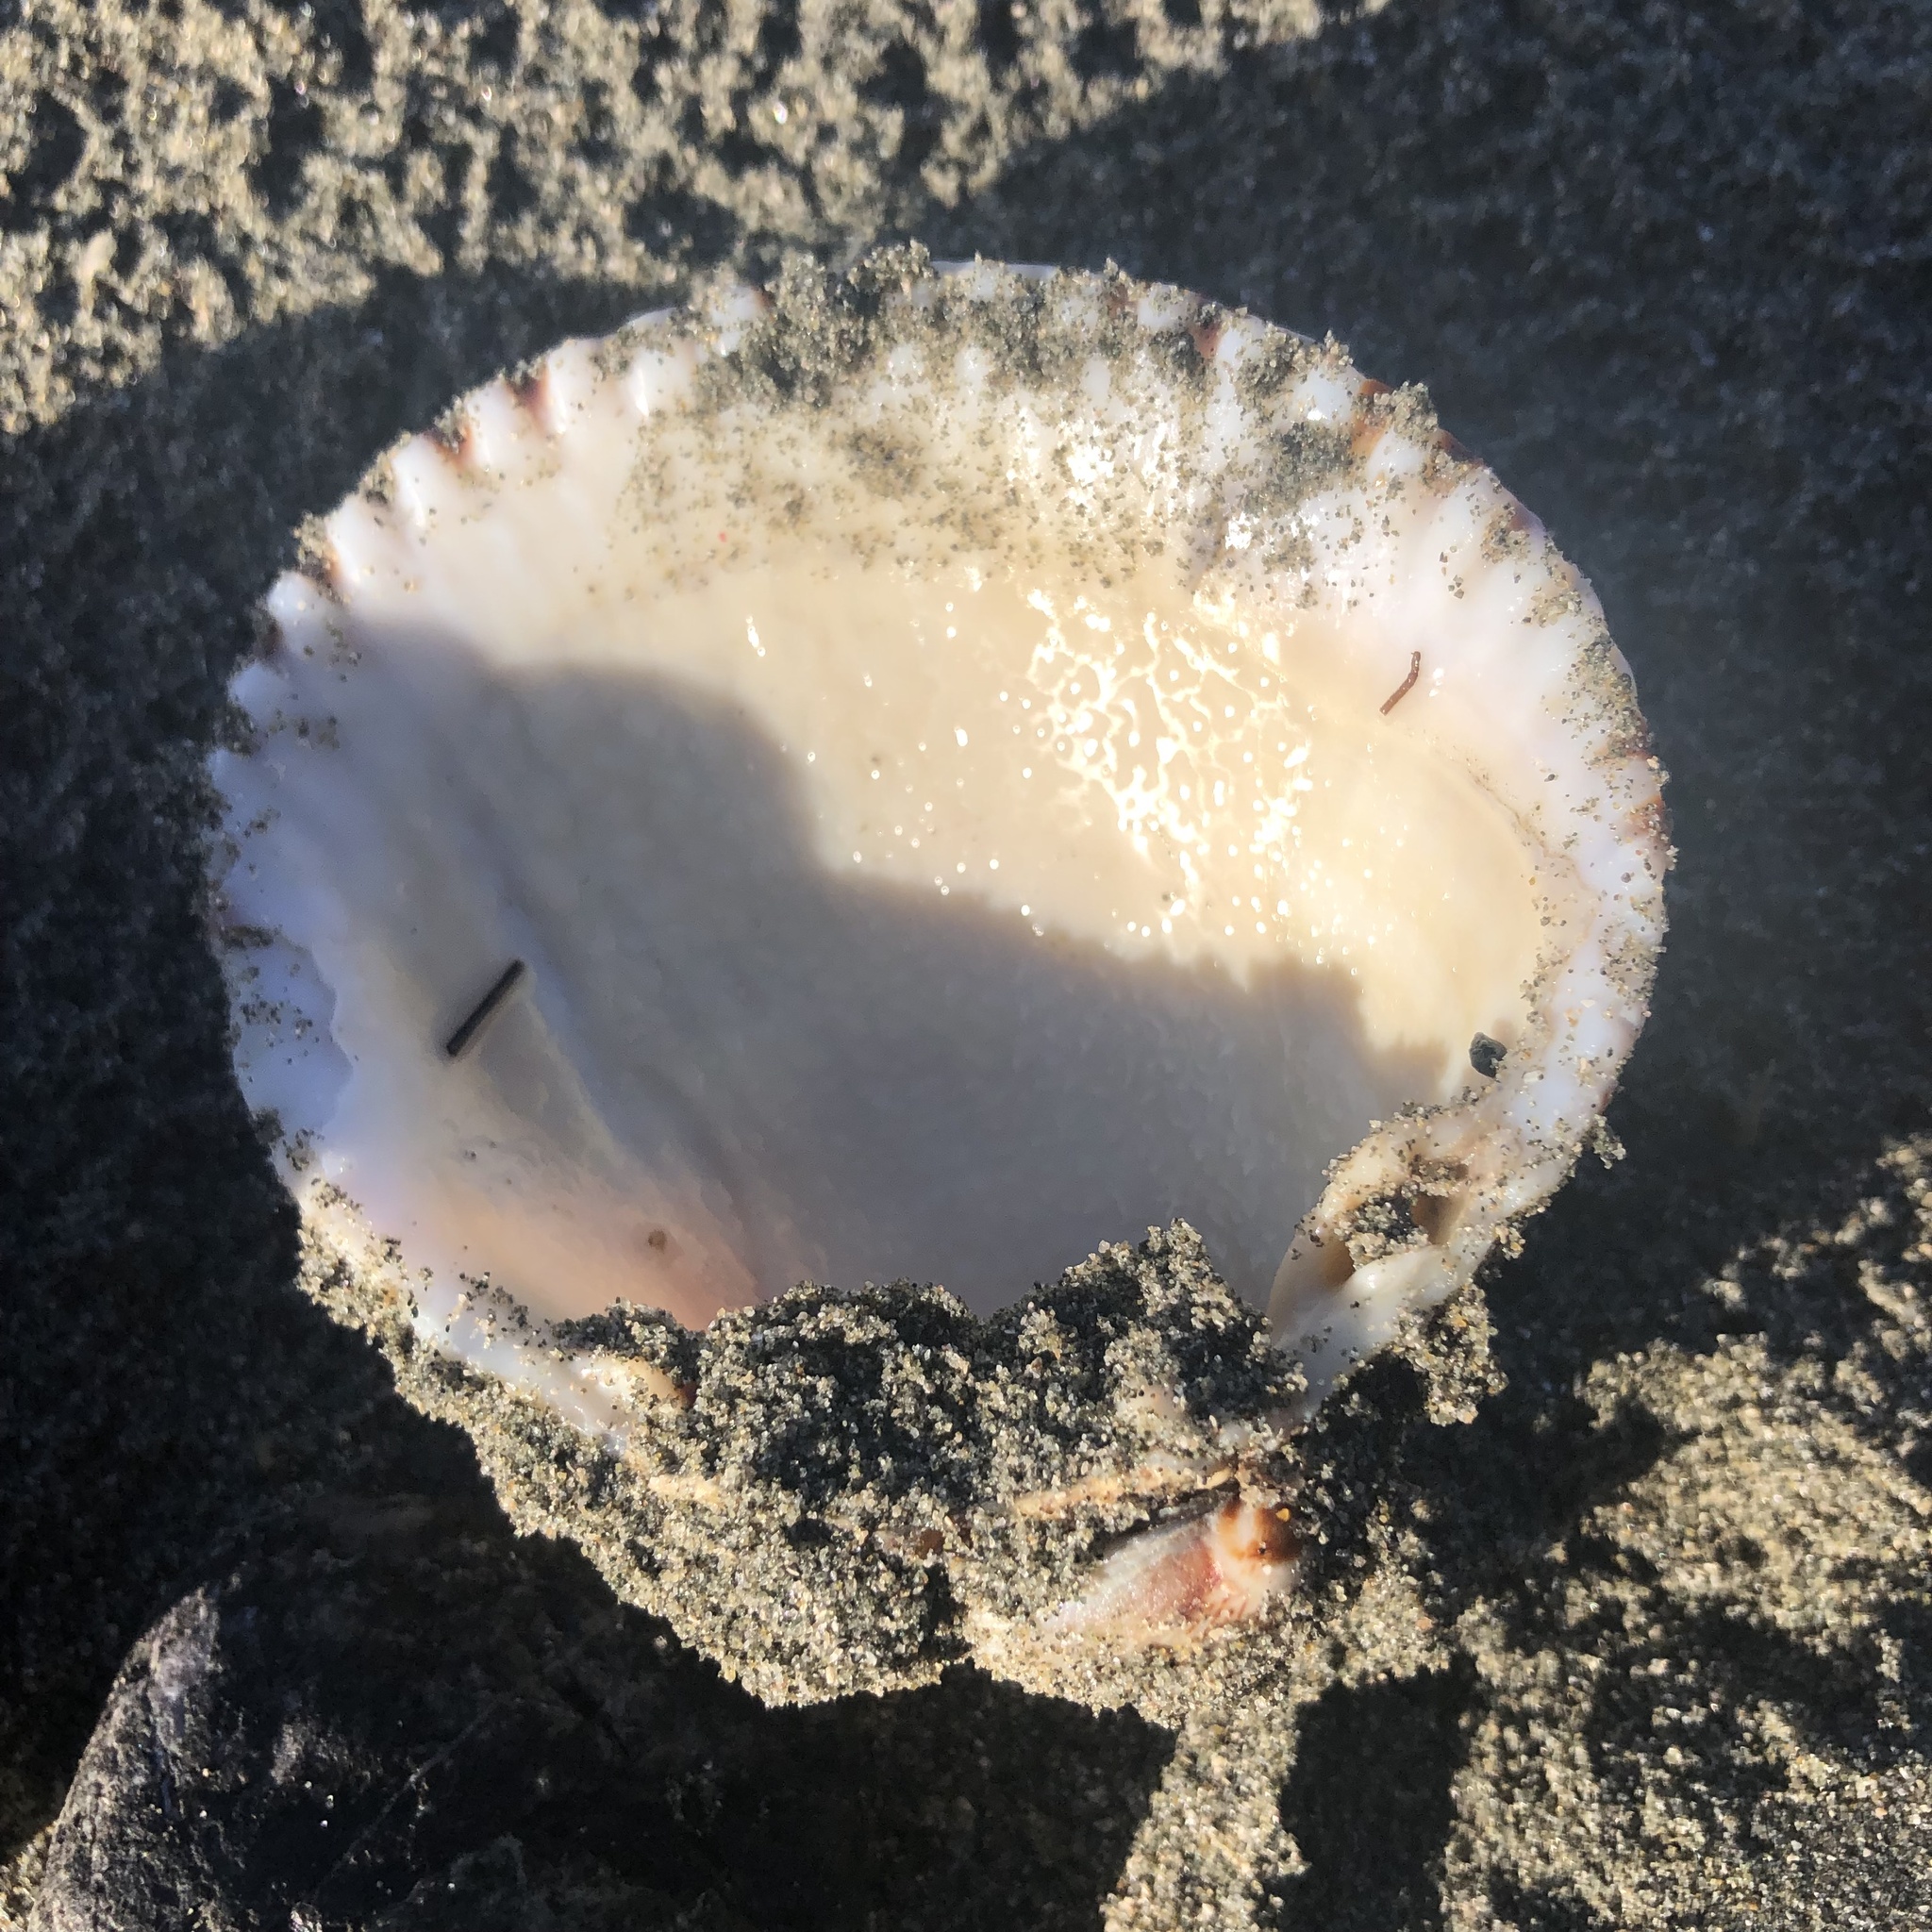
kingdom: Animalia
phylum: Mollusca
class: Bivalvia
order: Cardiida
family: Cardiidae
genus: Clinocardium
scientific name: Clinocardium nuttallii
